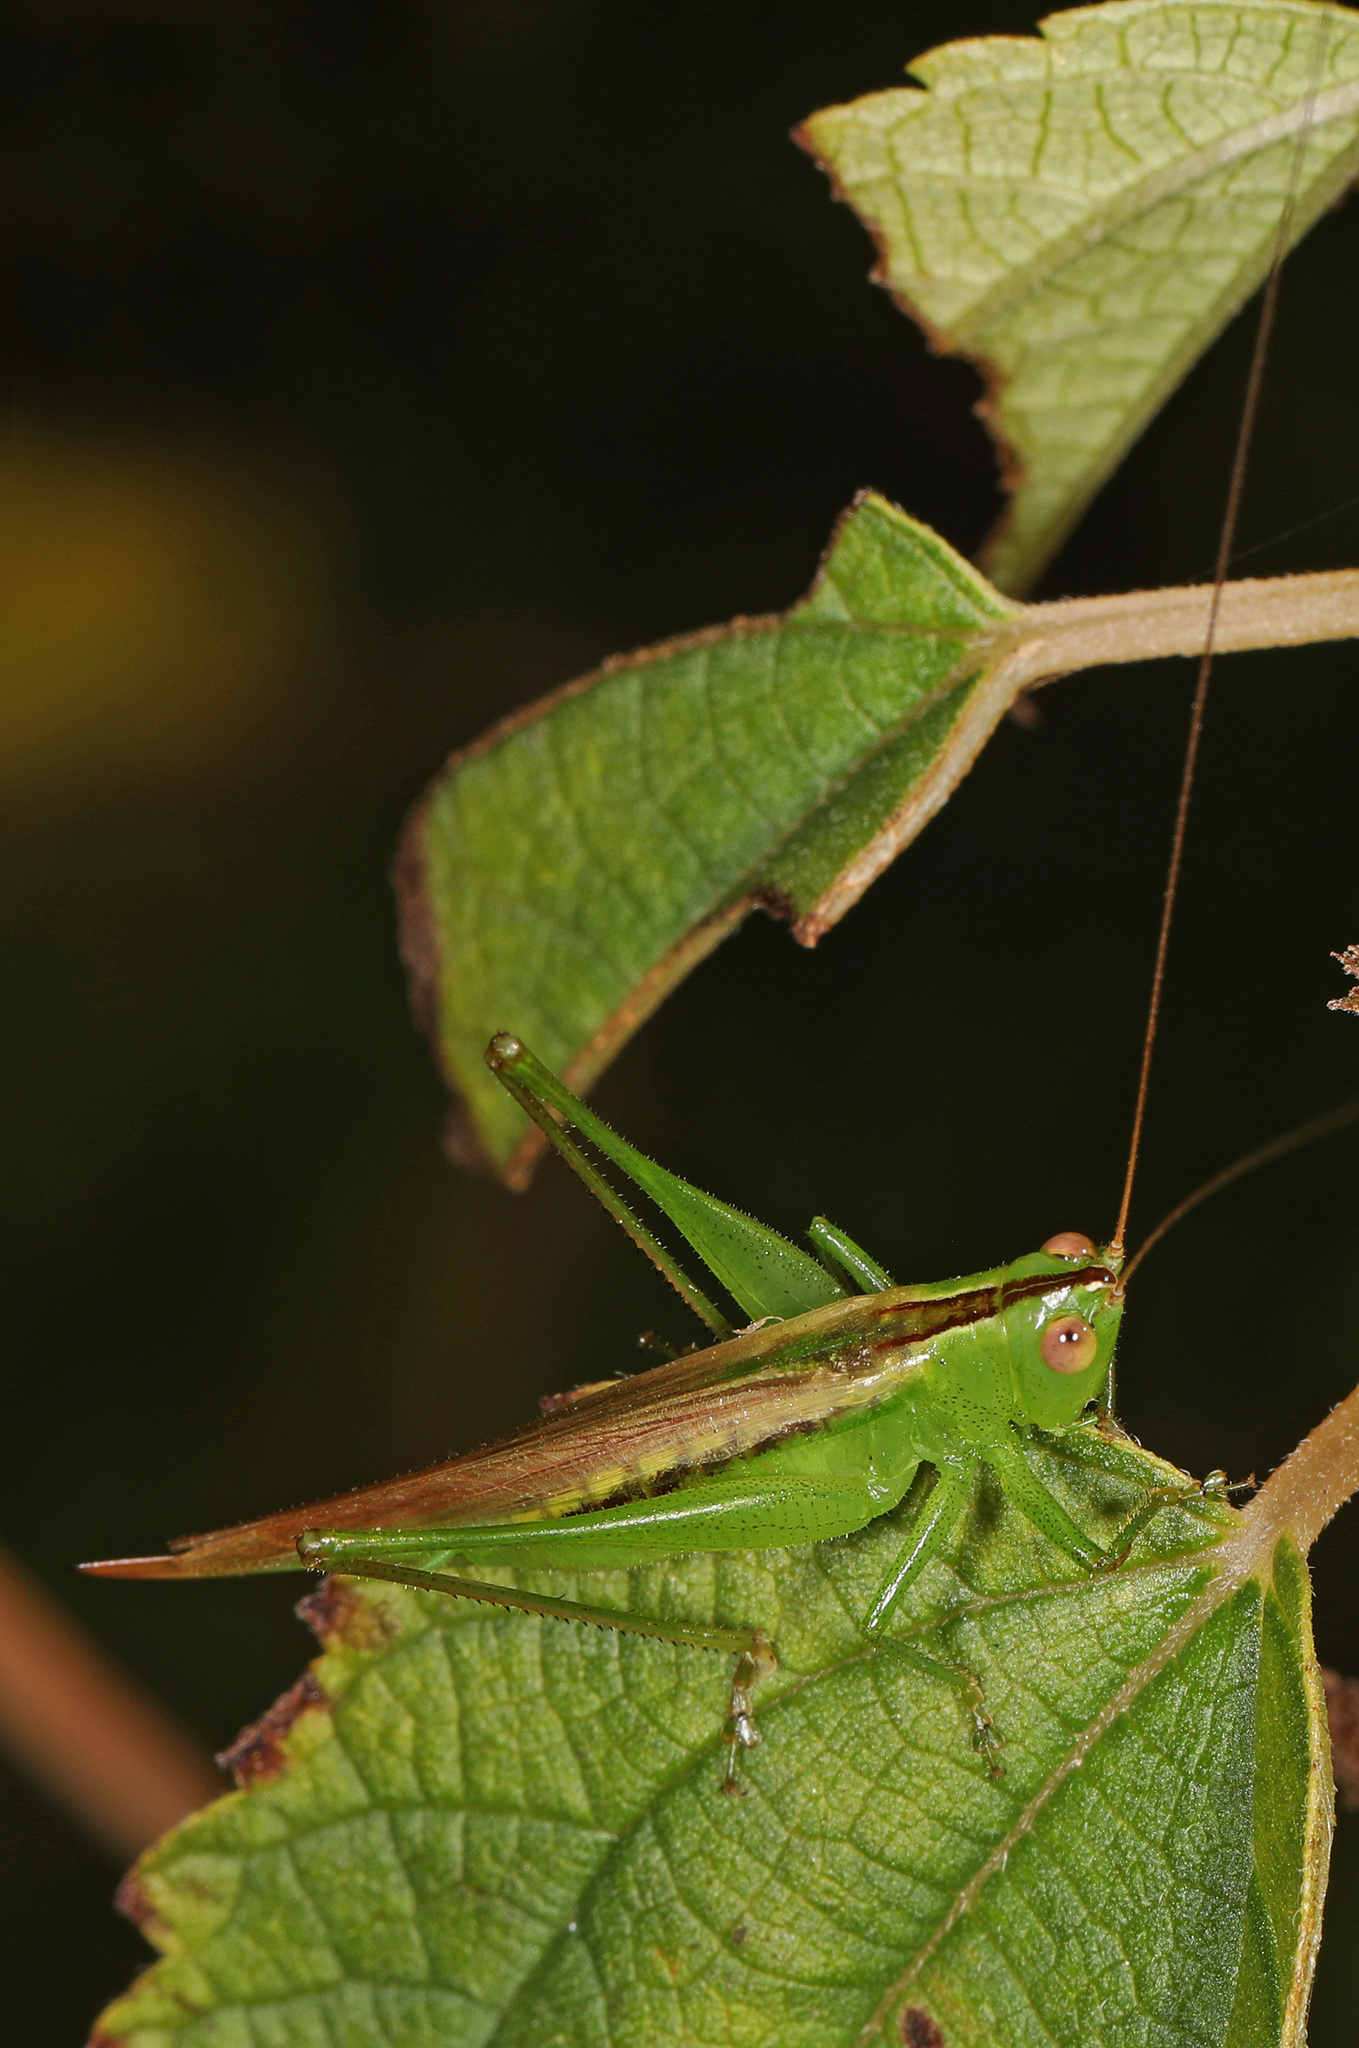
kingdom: Animalia
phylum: Arthropoda
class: Insecta
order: Orthoptera
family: Tettigoniidae
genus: Conocephalus
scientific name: Conocephalus fasciatus
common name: Slender meadow katydid
